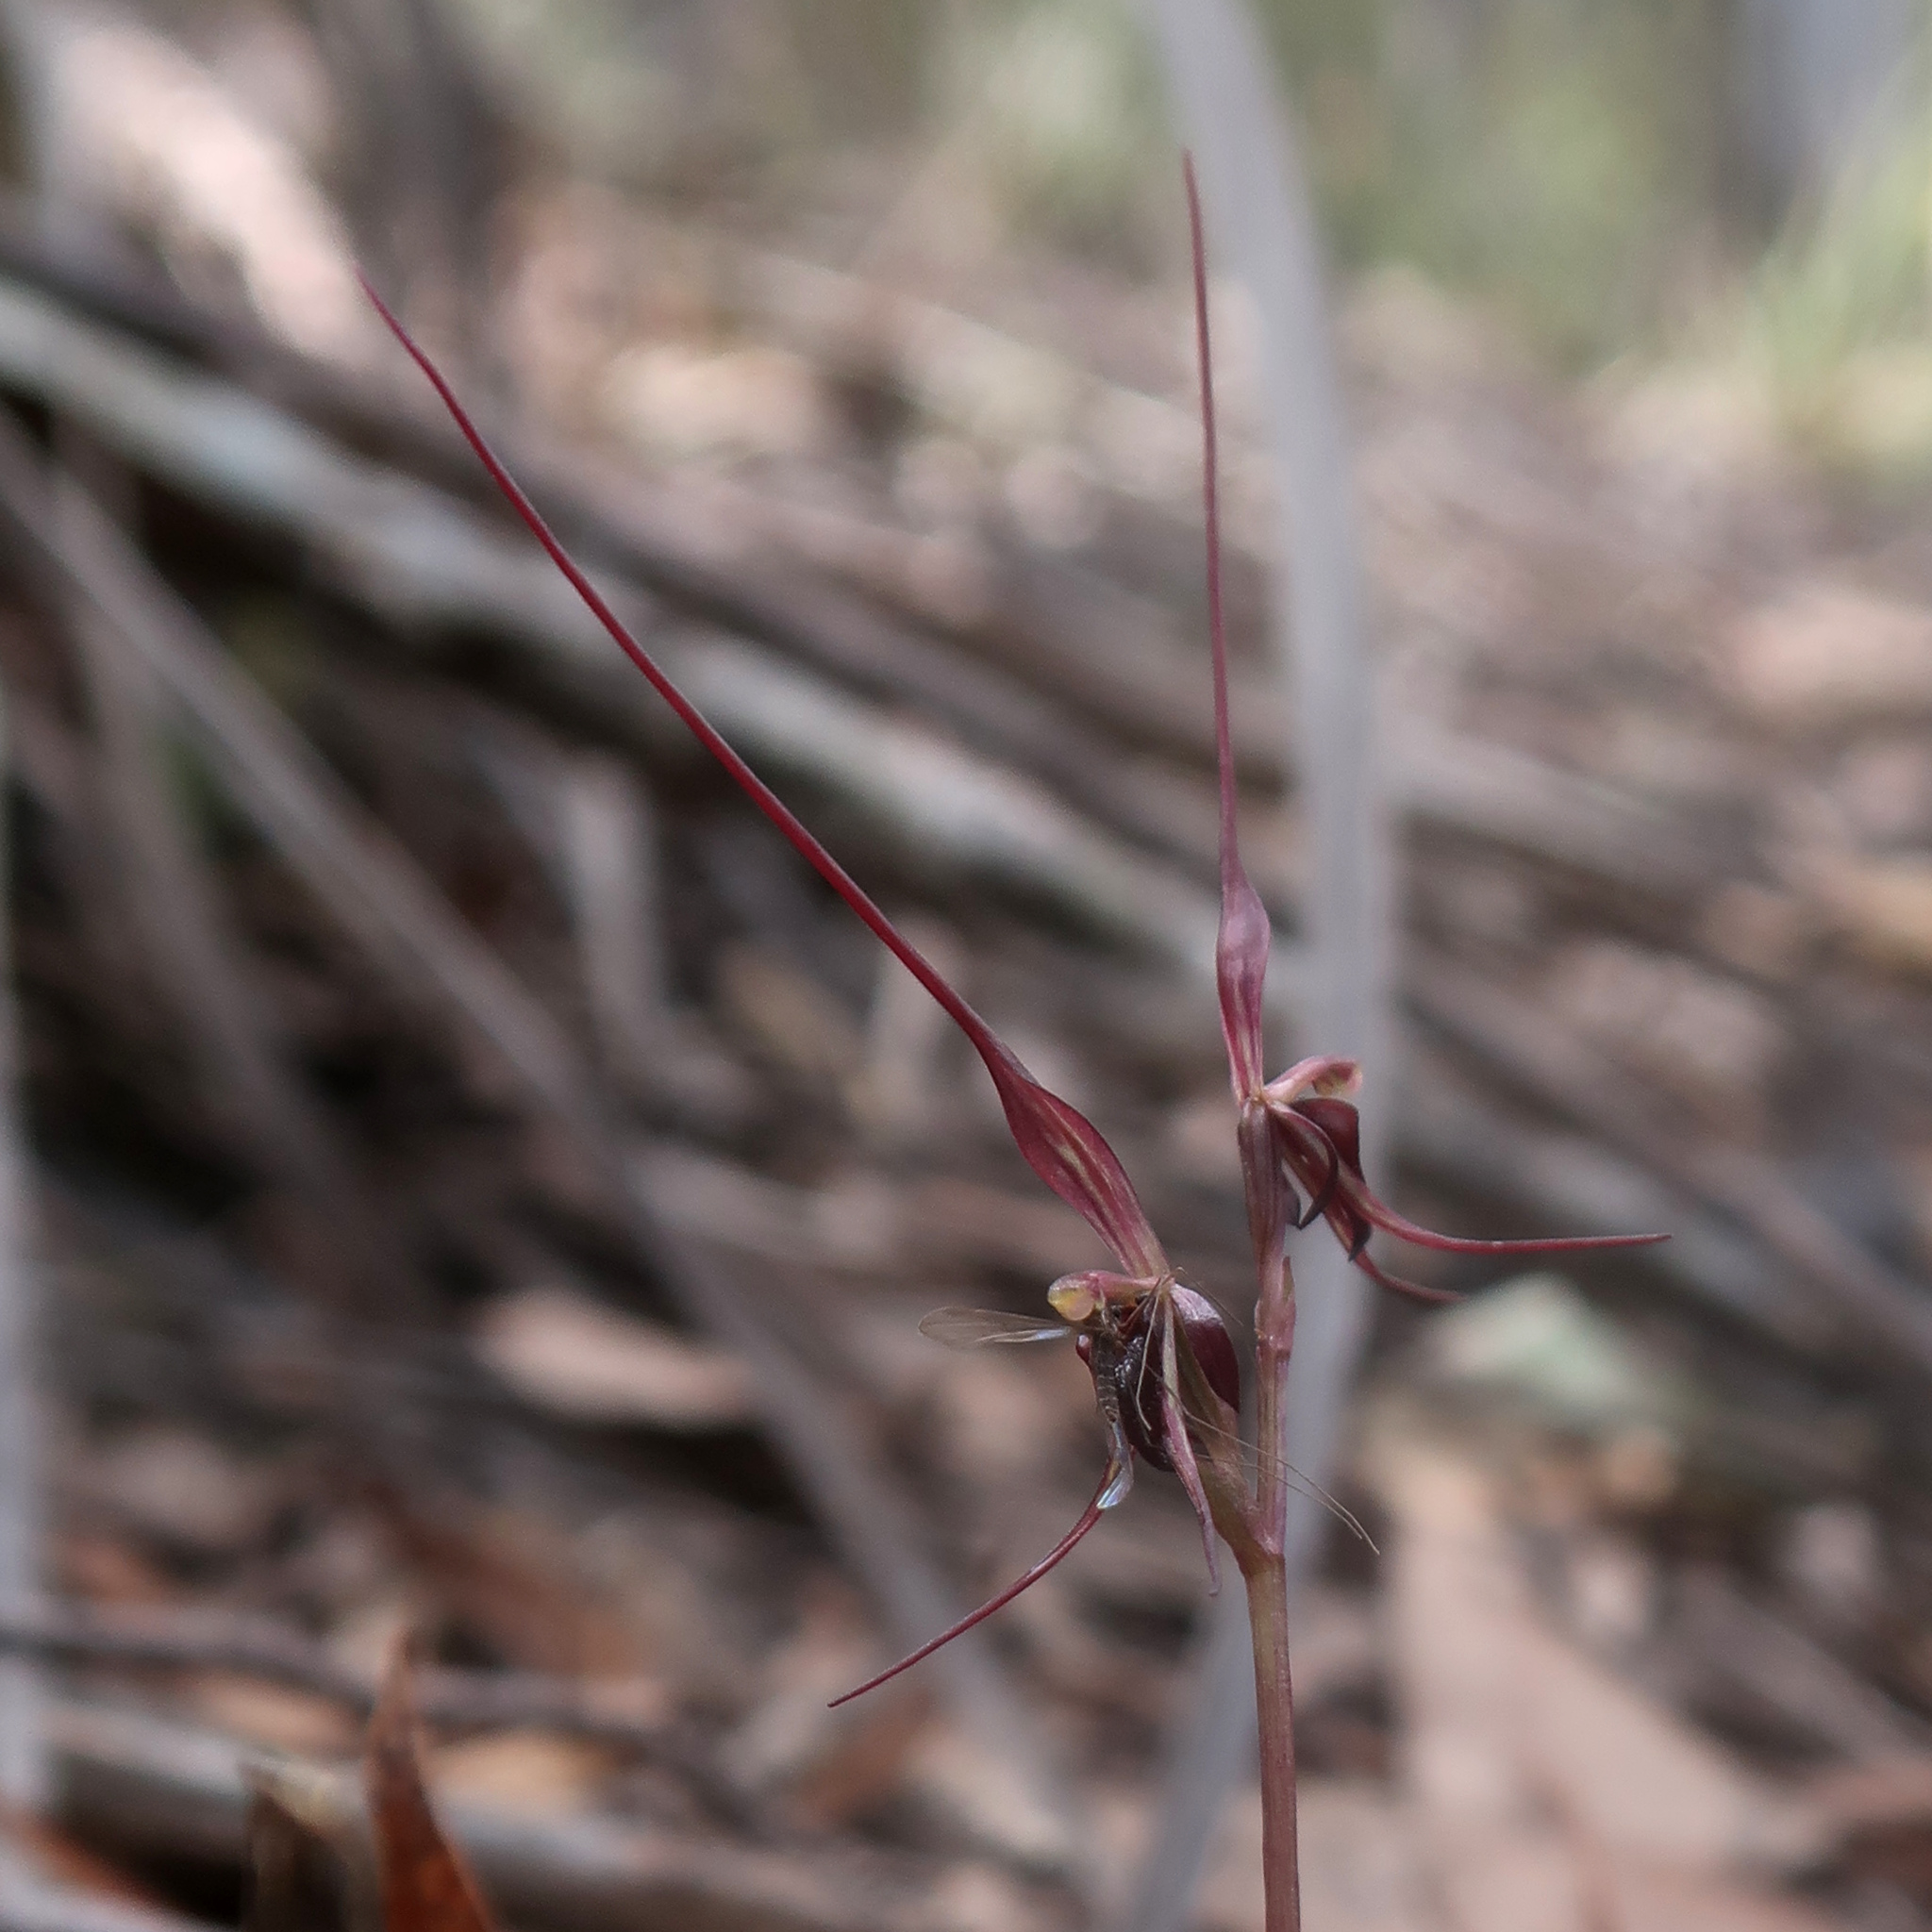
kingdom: Plantae
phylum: Tracheophyta
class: Liliopsida
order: Asparagales
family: Orchidaceae
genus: Acianthus
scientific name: Acianthus caudatus
